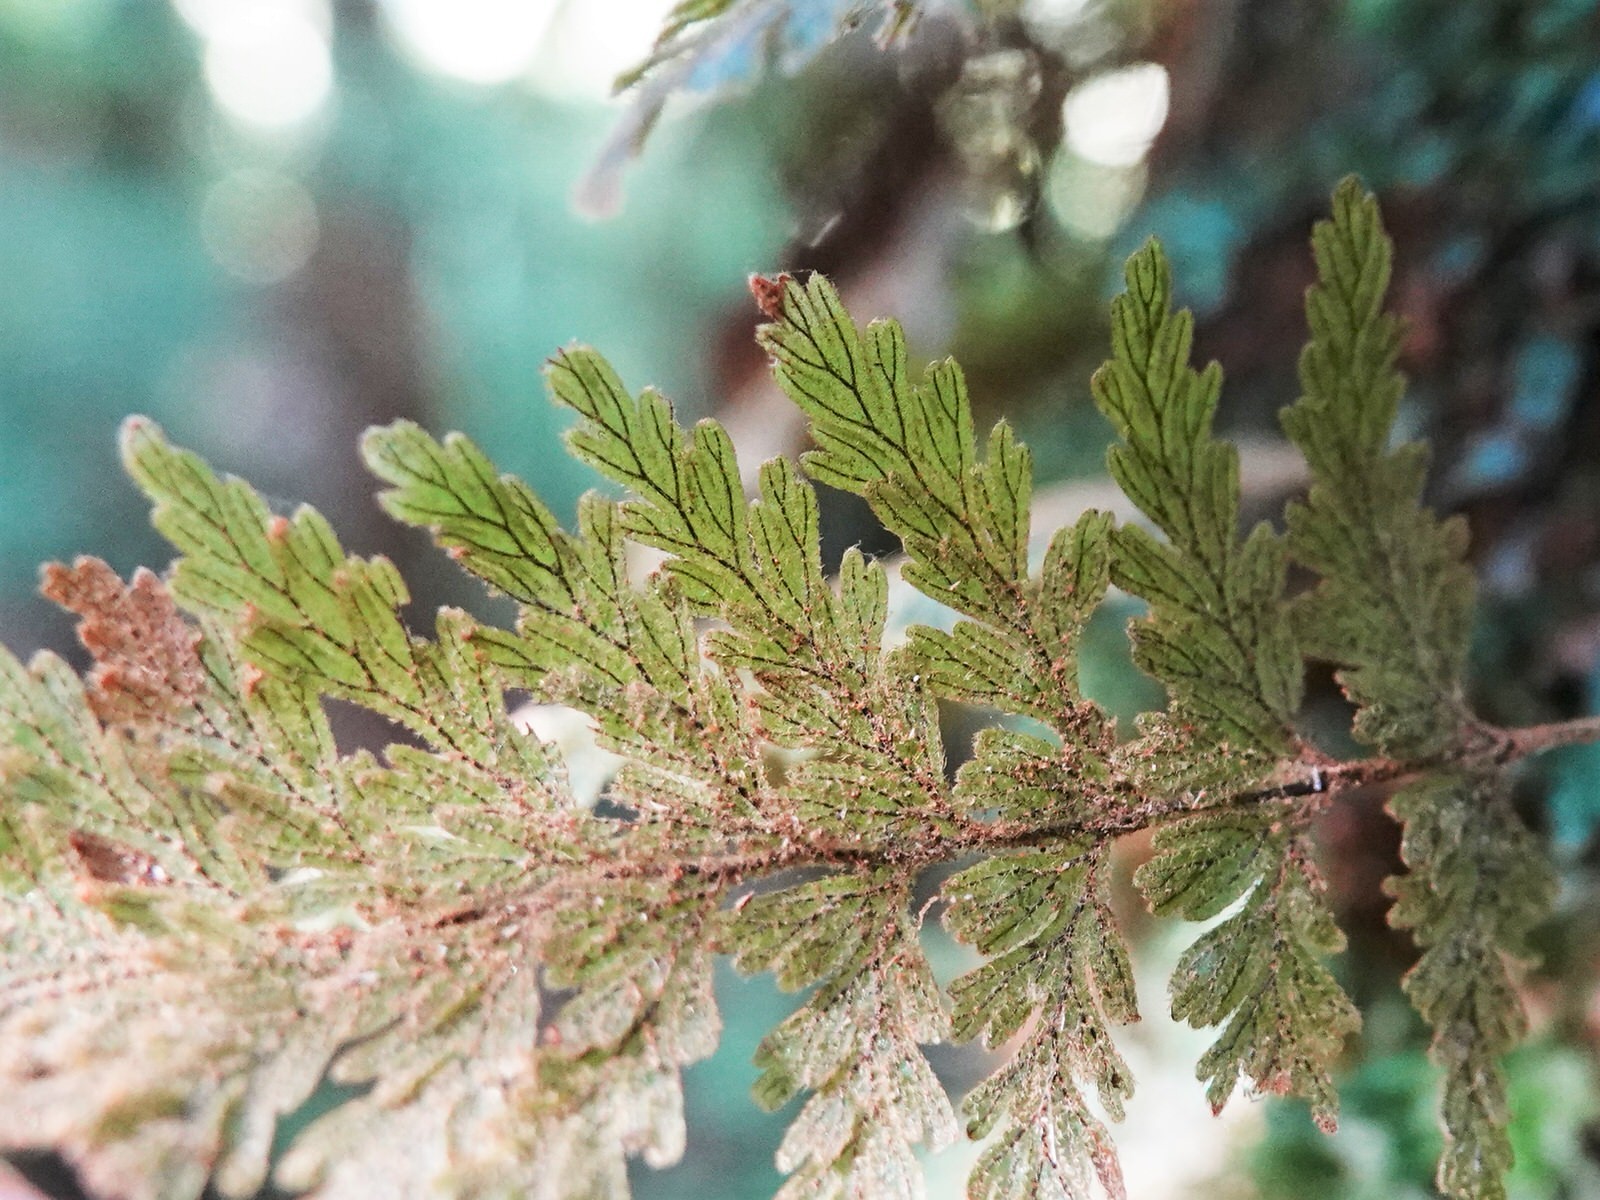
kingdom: Plantae
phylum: Tracheophyta
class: Polypodiopsida
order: Hymenophyllales
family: Hymenophyllaceae
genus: Hymenophyllum
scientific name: Hymenophyllum frankliniae
